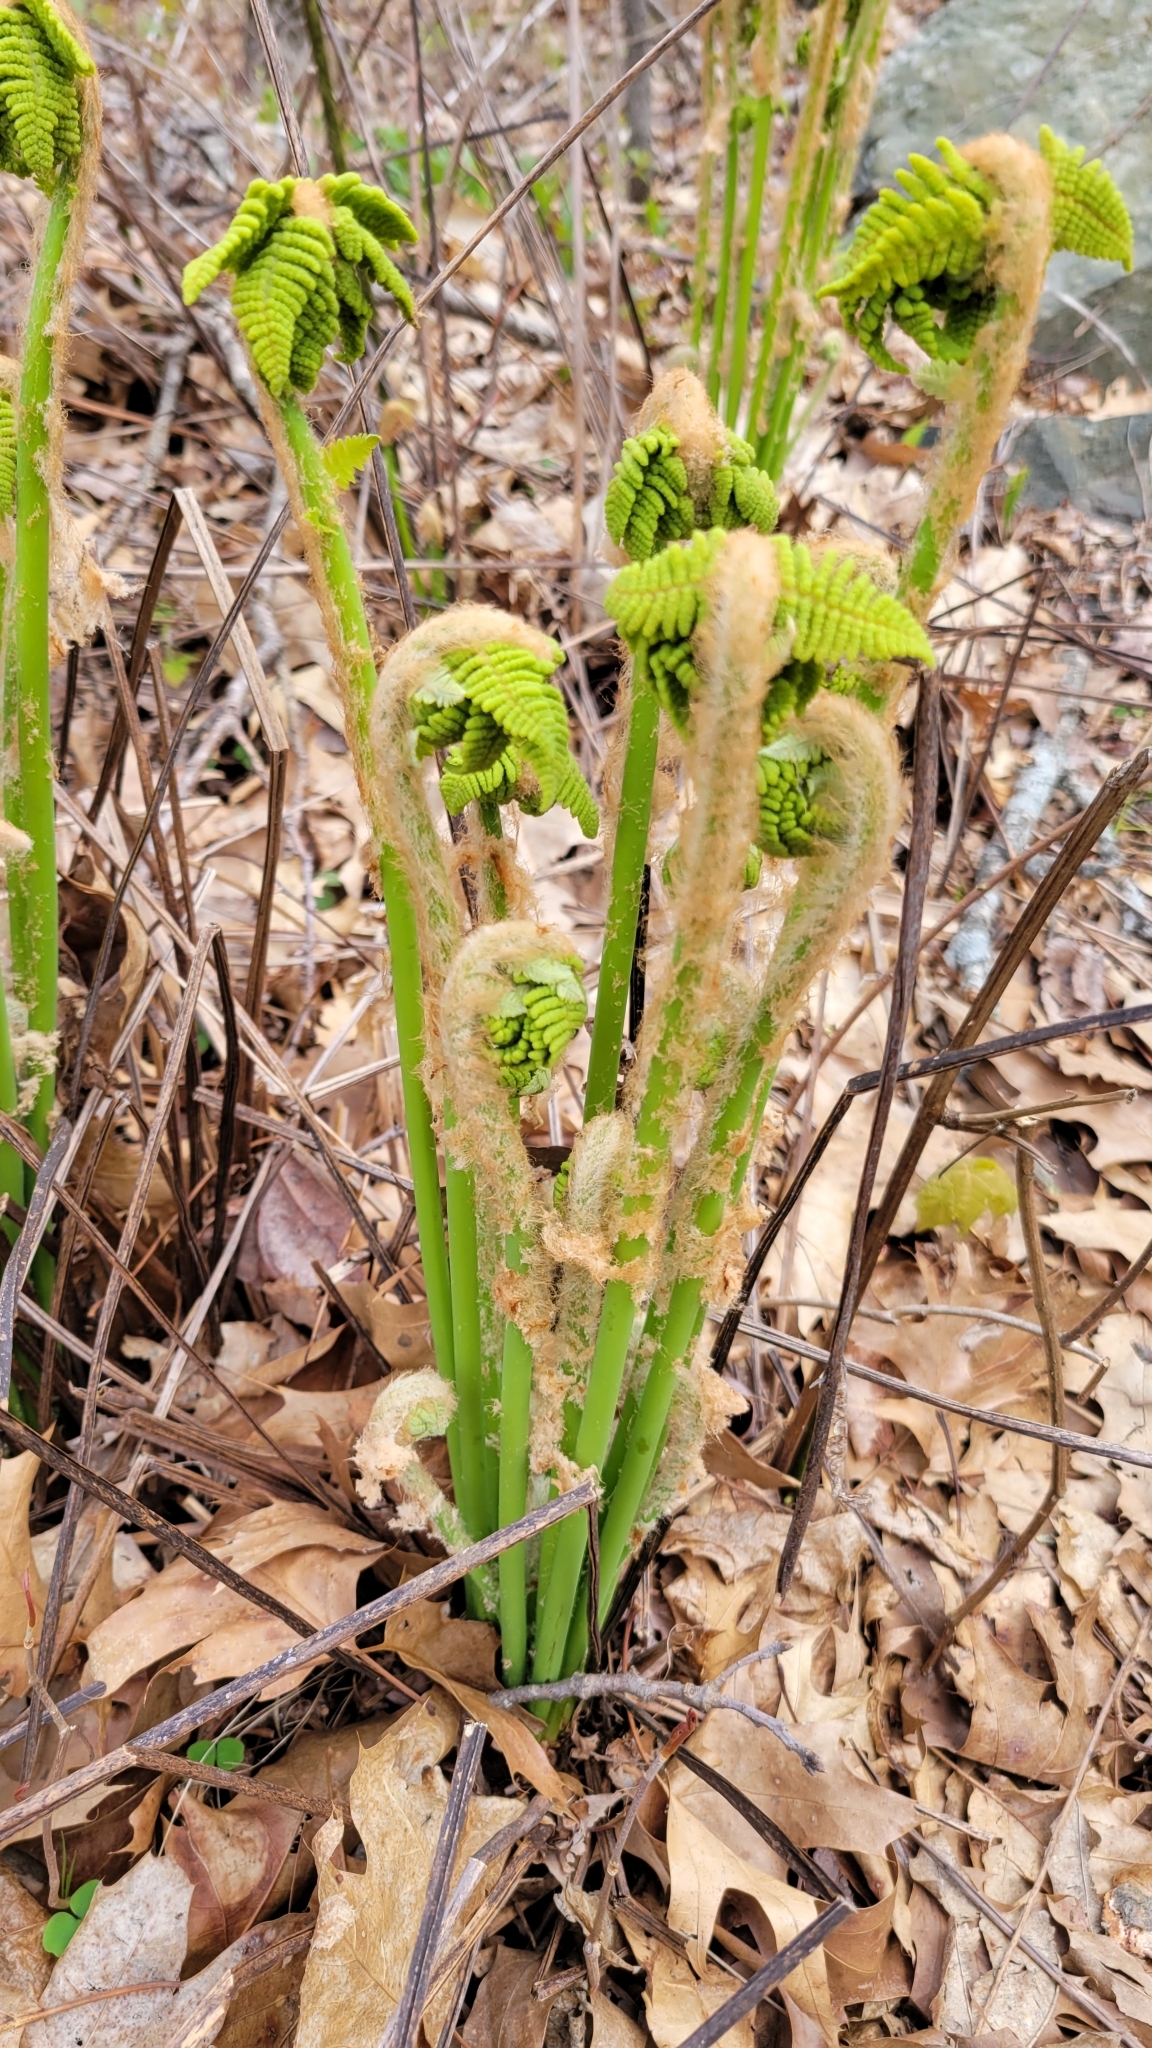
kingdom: Plantae
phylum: Tracheophyta
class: Polypodiopsida
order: Osmundales
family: Osmundaceae
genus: Claytosmunda
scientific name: Claytosmunda claytoniana
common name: Clayton's fern
